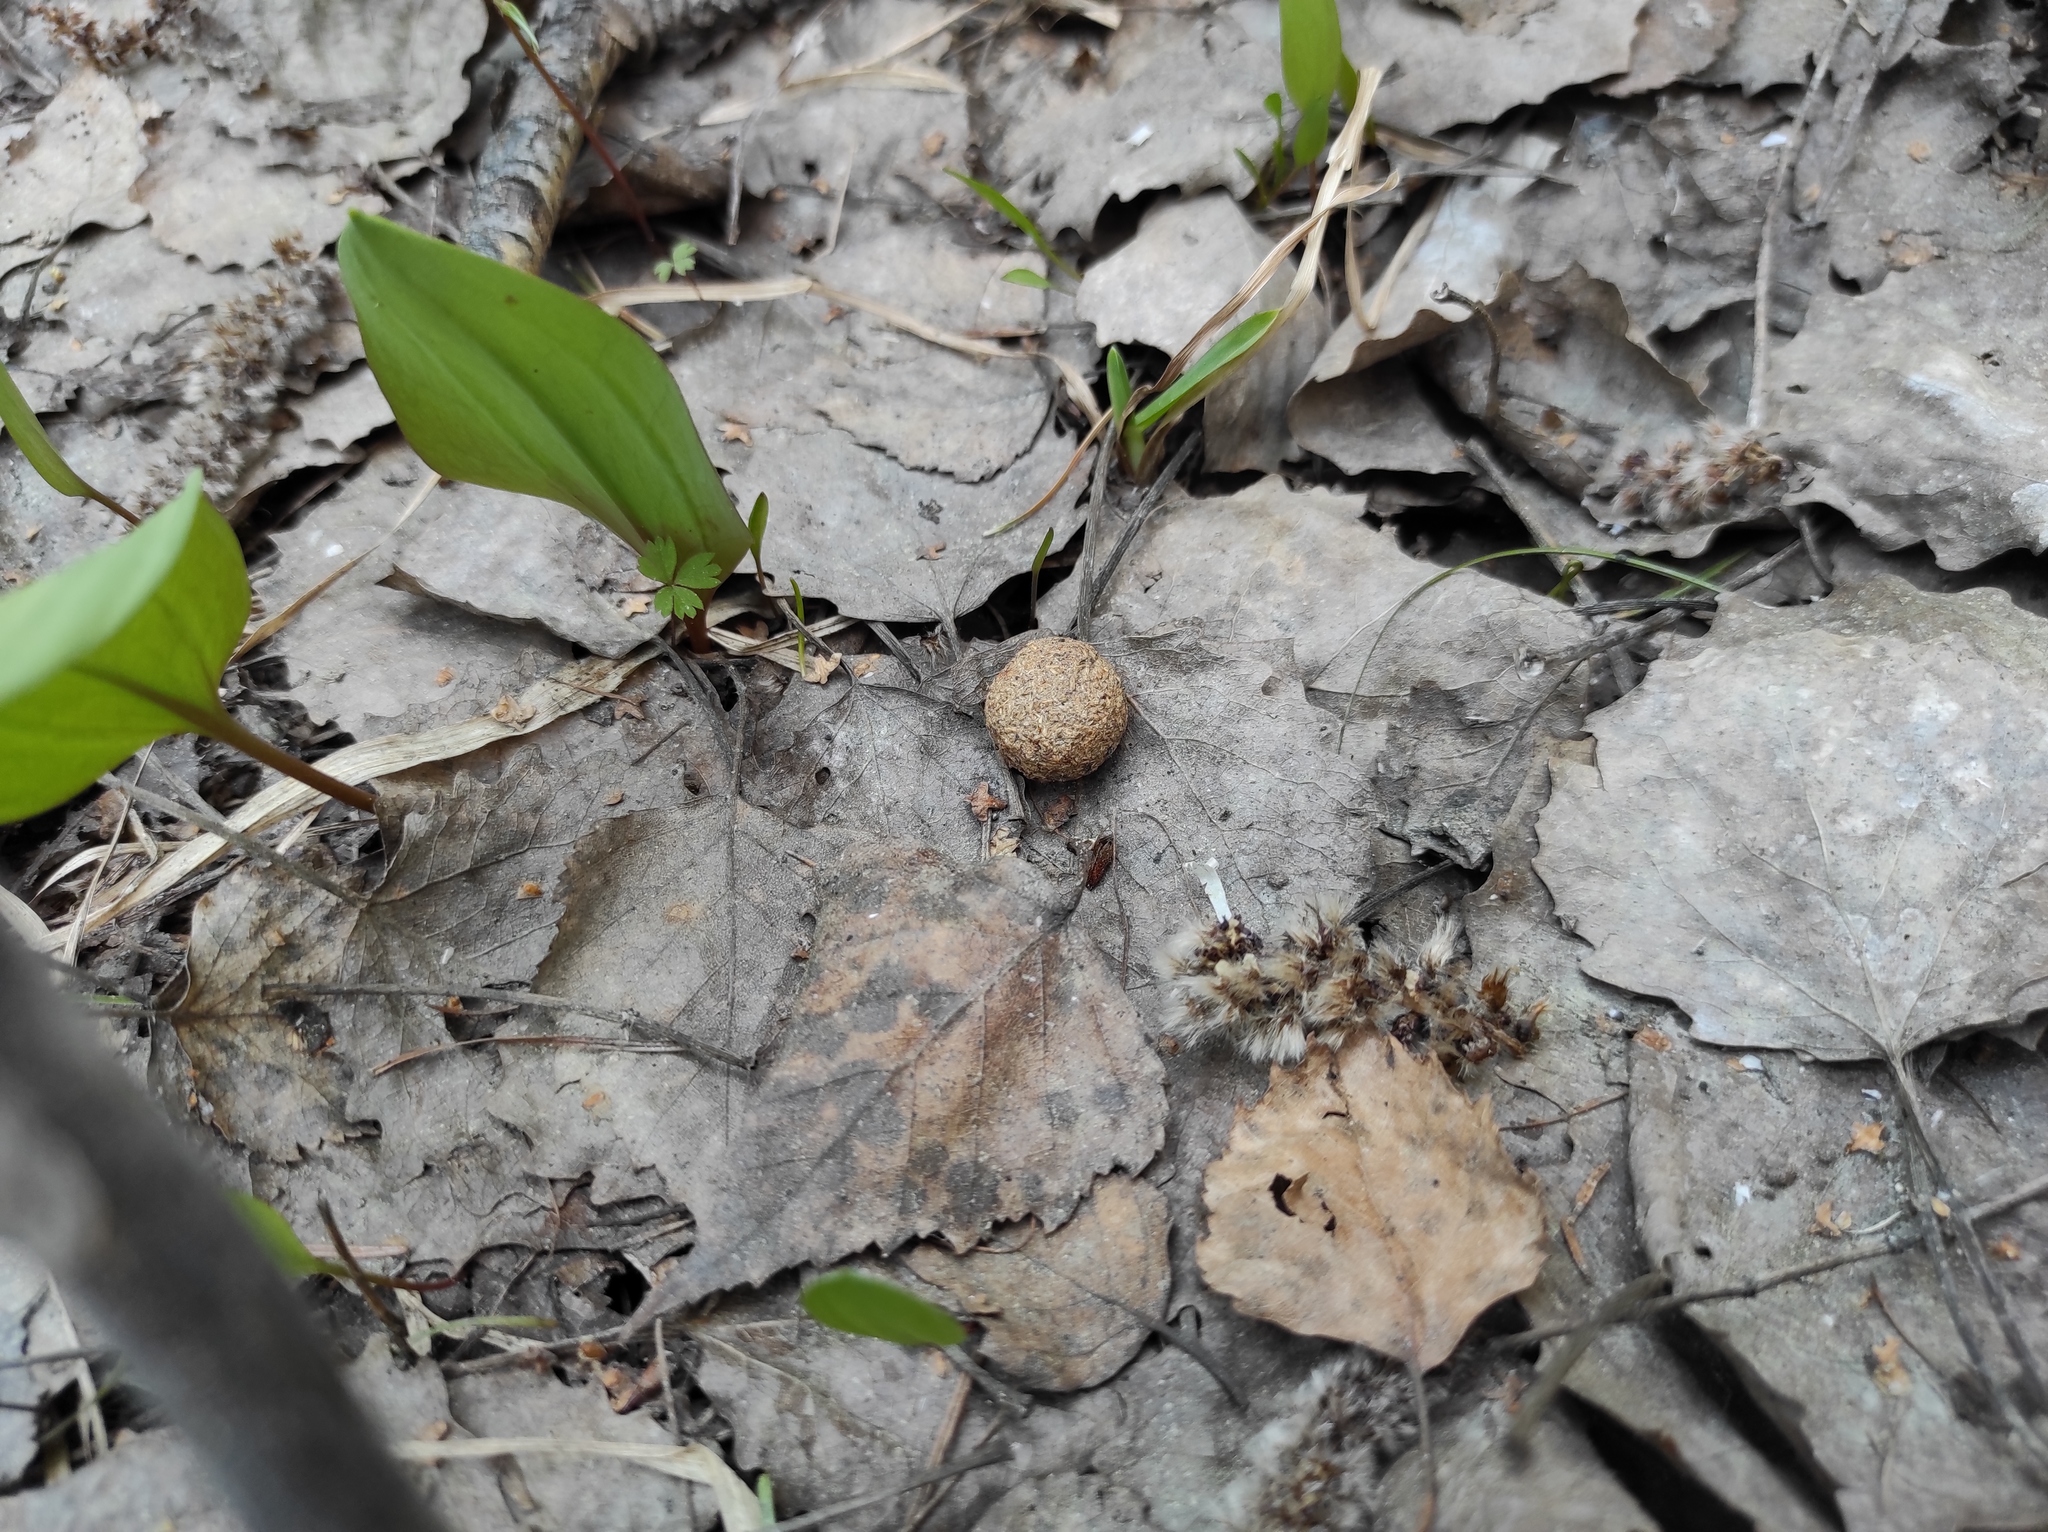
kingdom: Animalia
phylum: Chordata
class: Mammalia
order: Lagomorpha
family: Leporidae
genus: Lepus
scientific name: Lepus timidus
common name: Mountain hare
